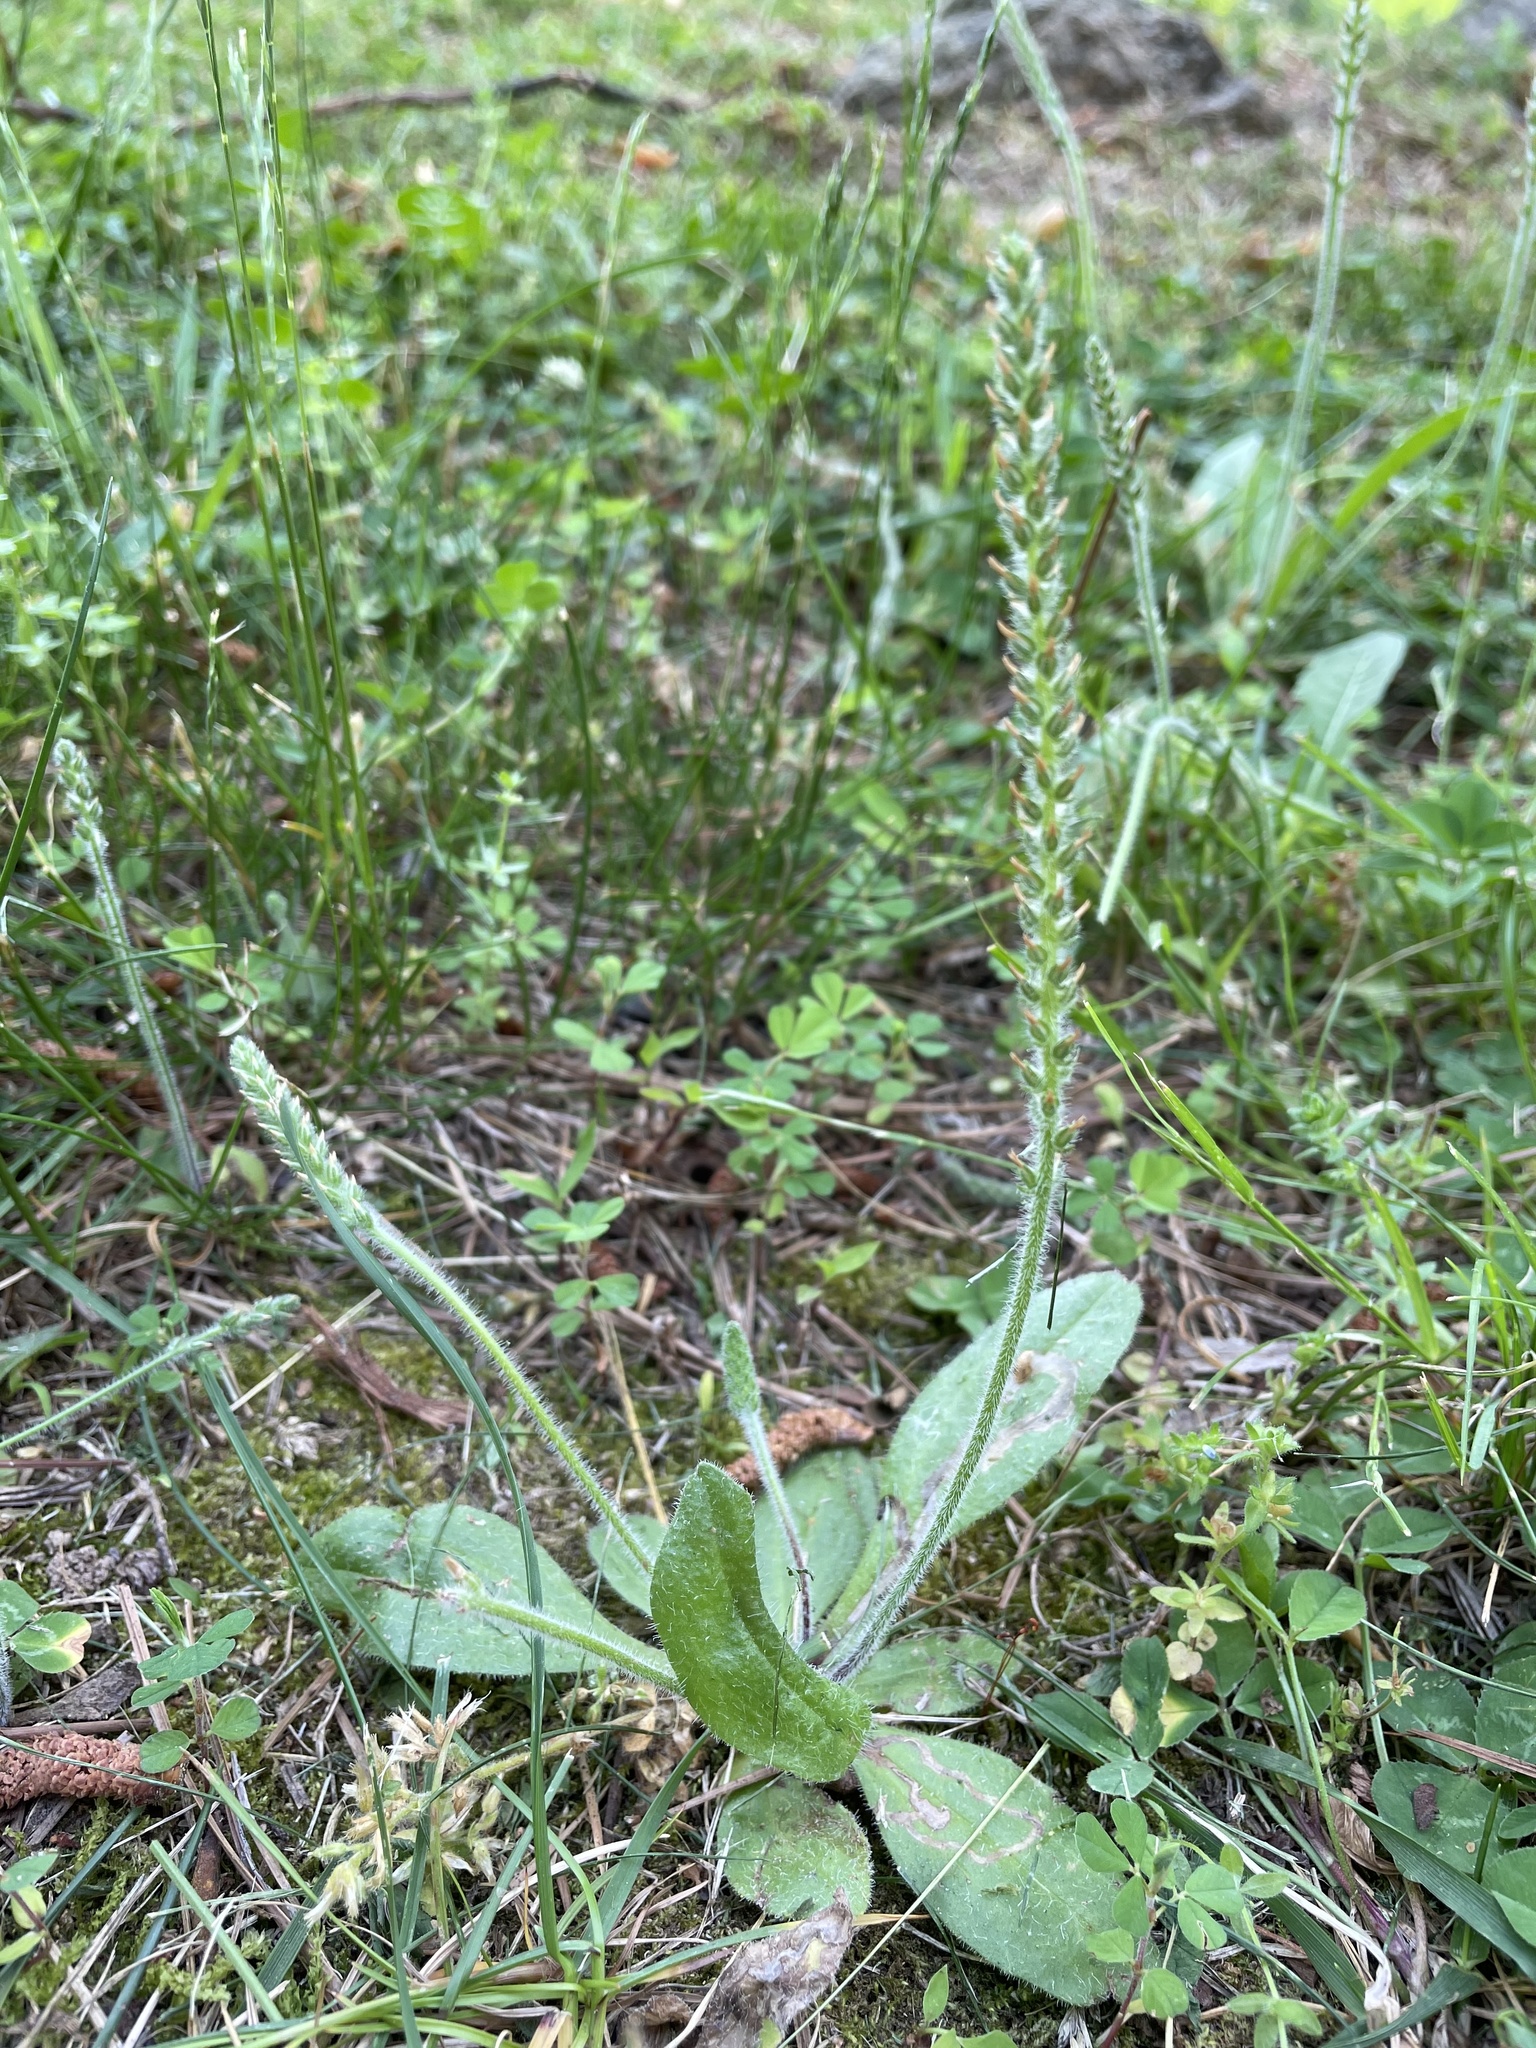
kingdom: Plantae
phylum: Tracheophyta
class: Magnoliopsida
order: Lamiales
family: Plantaginaceae
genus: Plantago
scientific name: Plantago virginica
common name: Hoary plantain
